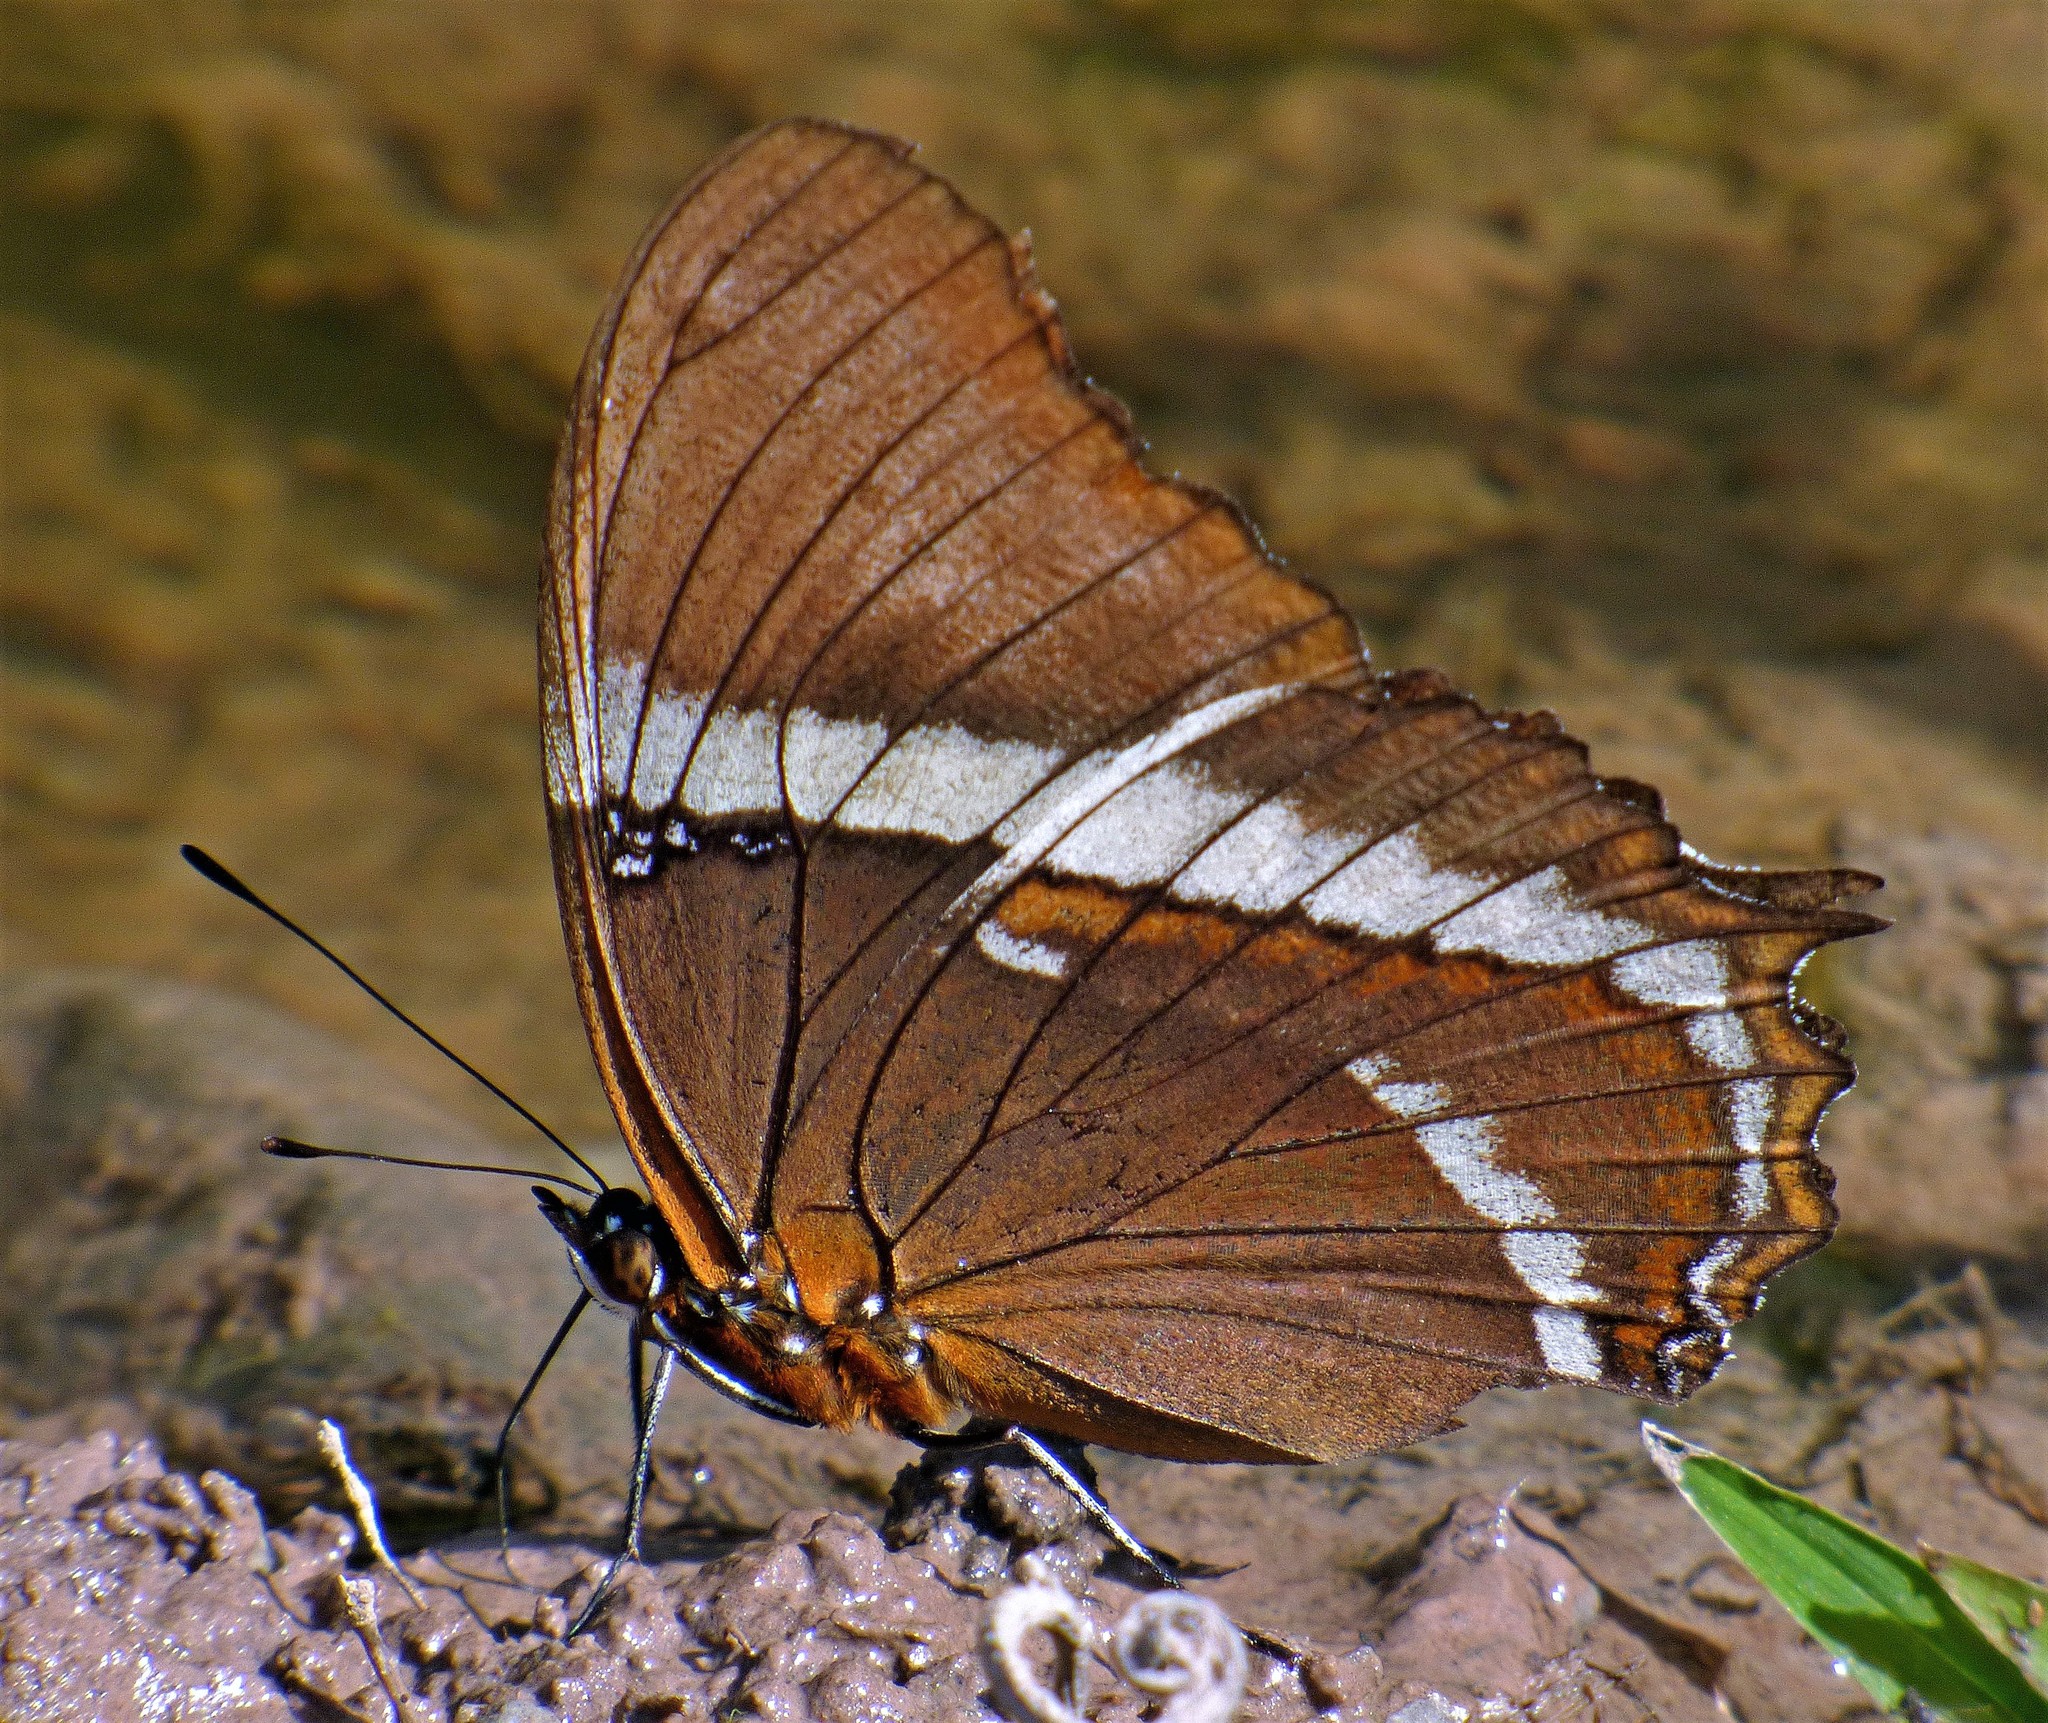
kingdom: Animalia
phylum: Arthropoda
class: Insecta
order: Lepidoptera
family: Nymphalidae
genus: Siproeta
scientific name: Siproeta epaphus
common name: Rusty-tipped page
